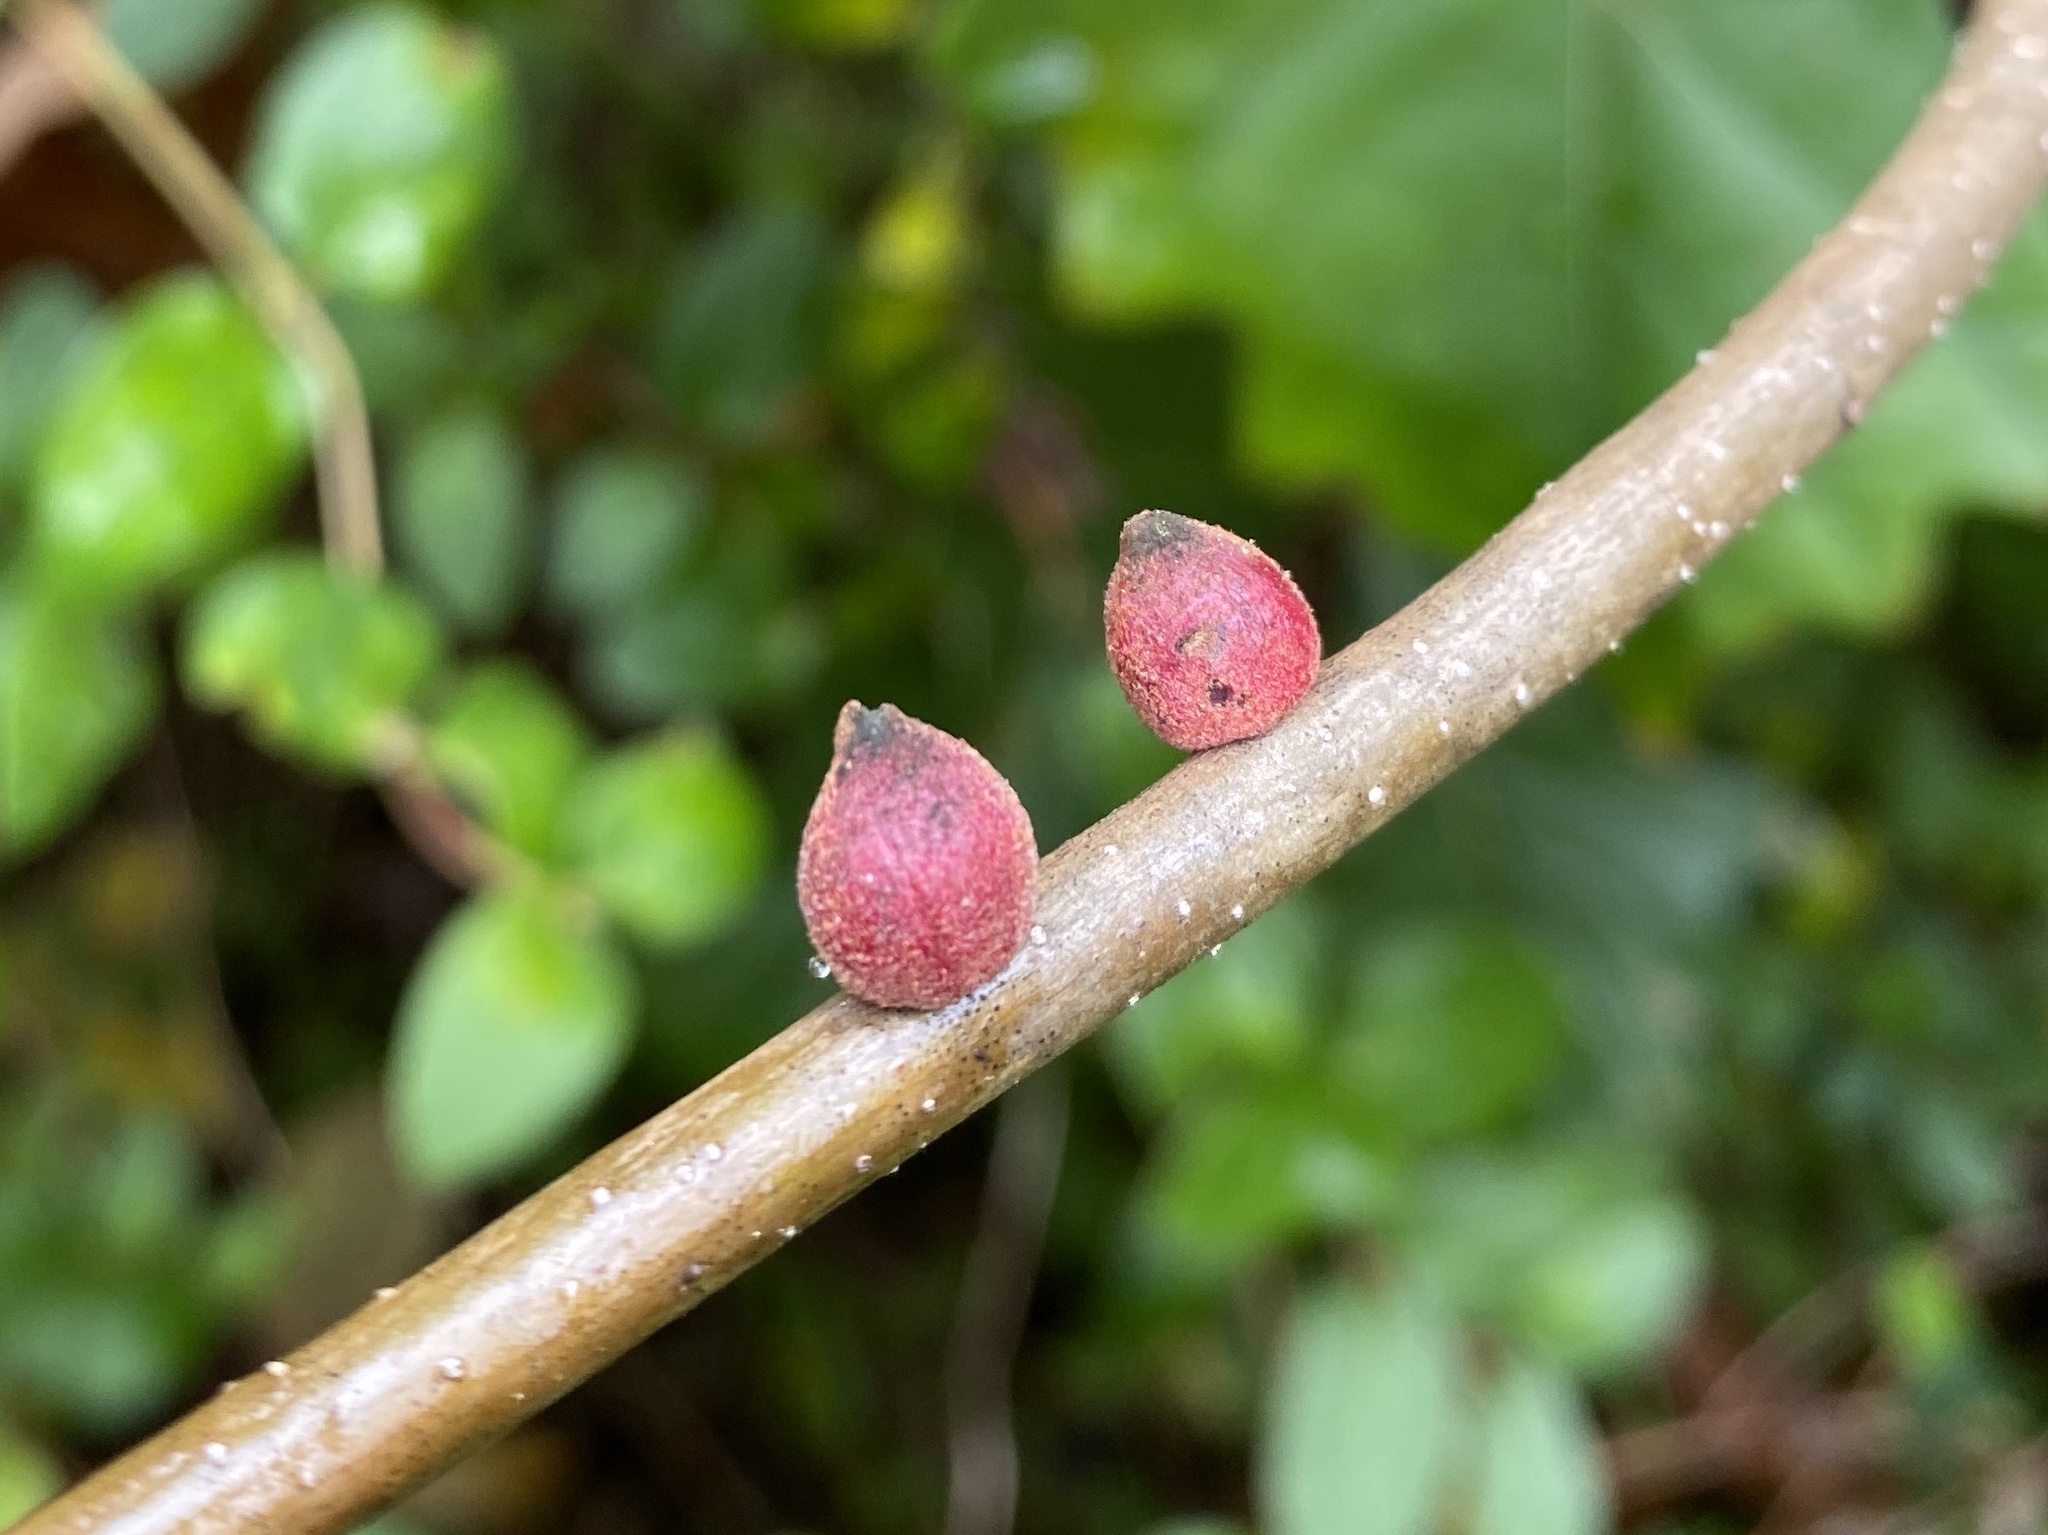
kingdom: Animalia
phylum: Arthropoda
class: Insecta
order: Hymenoptera
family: Cynipidae
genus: Disholcaspis
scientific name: Disholcaspis
